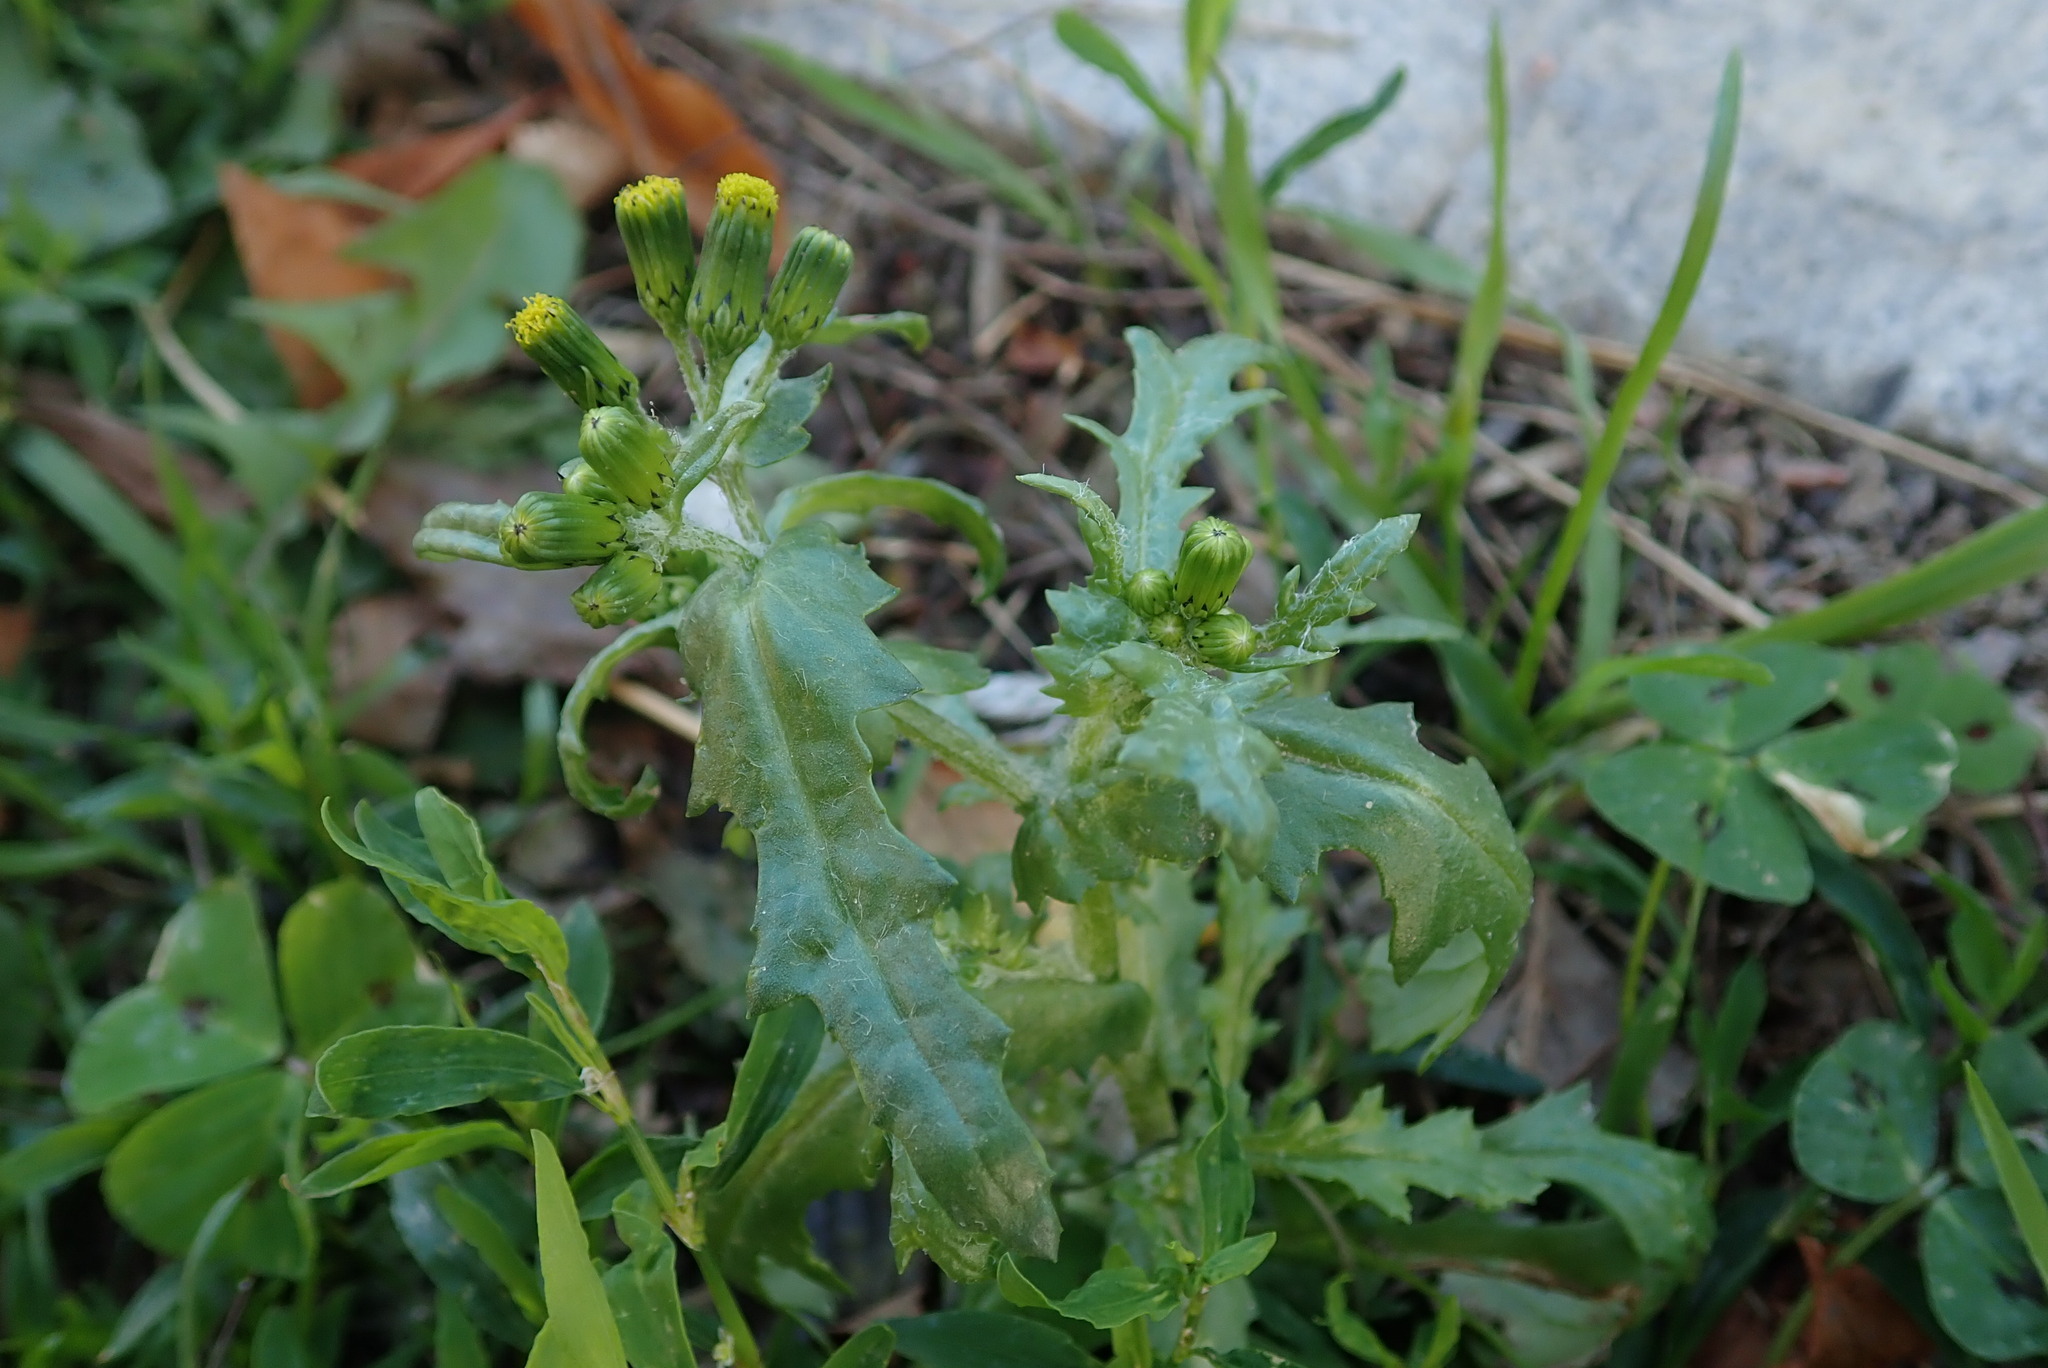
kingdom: Plantae
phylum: Tracheophyta
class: Magnoliopsida
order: Asterales
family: Asteraceae
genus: Senecio
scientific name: Senecio vulgaris
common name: Old-man-in-the-spring
